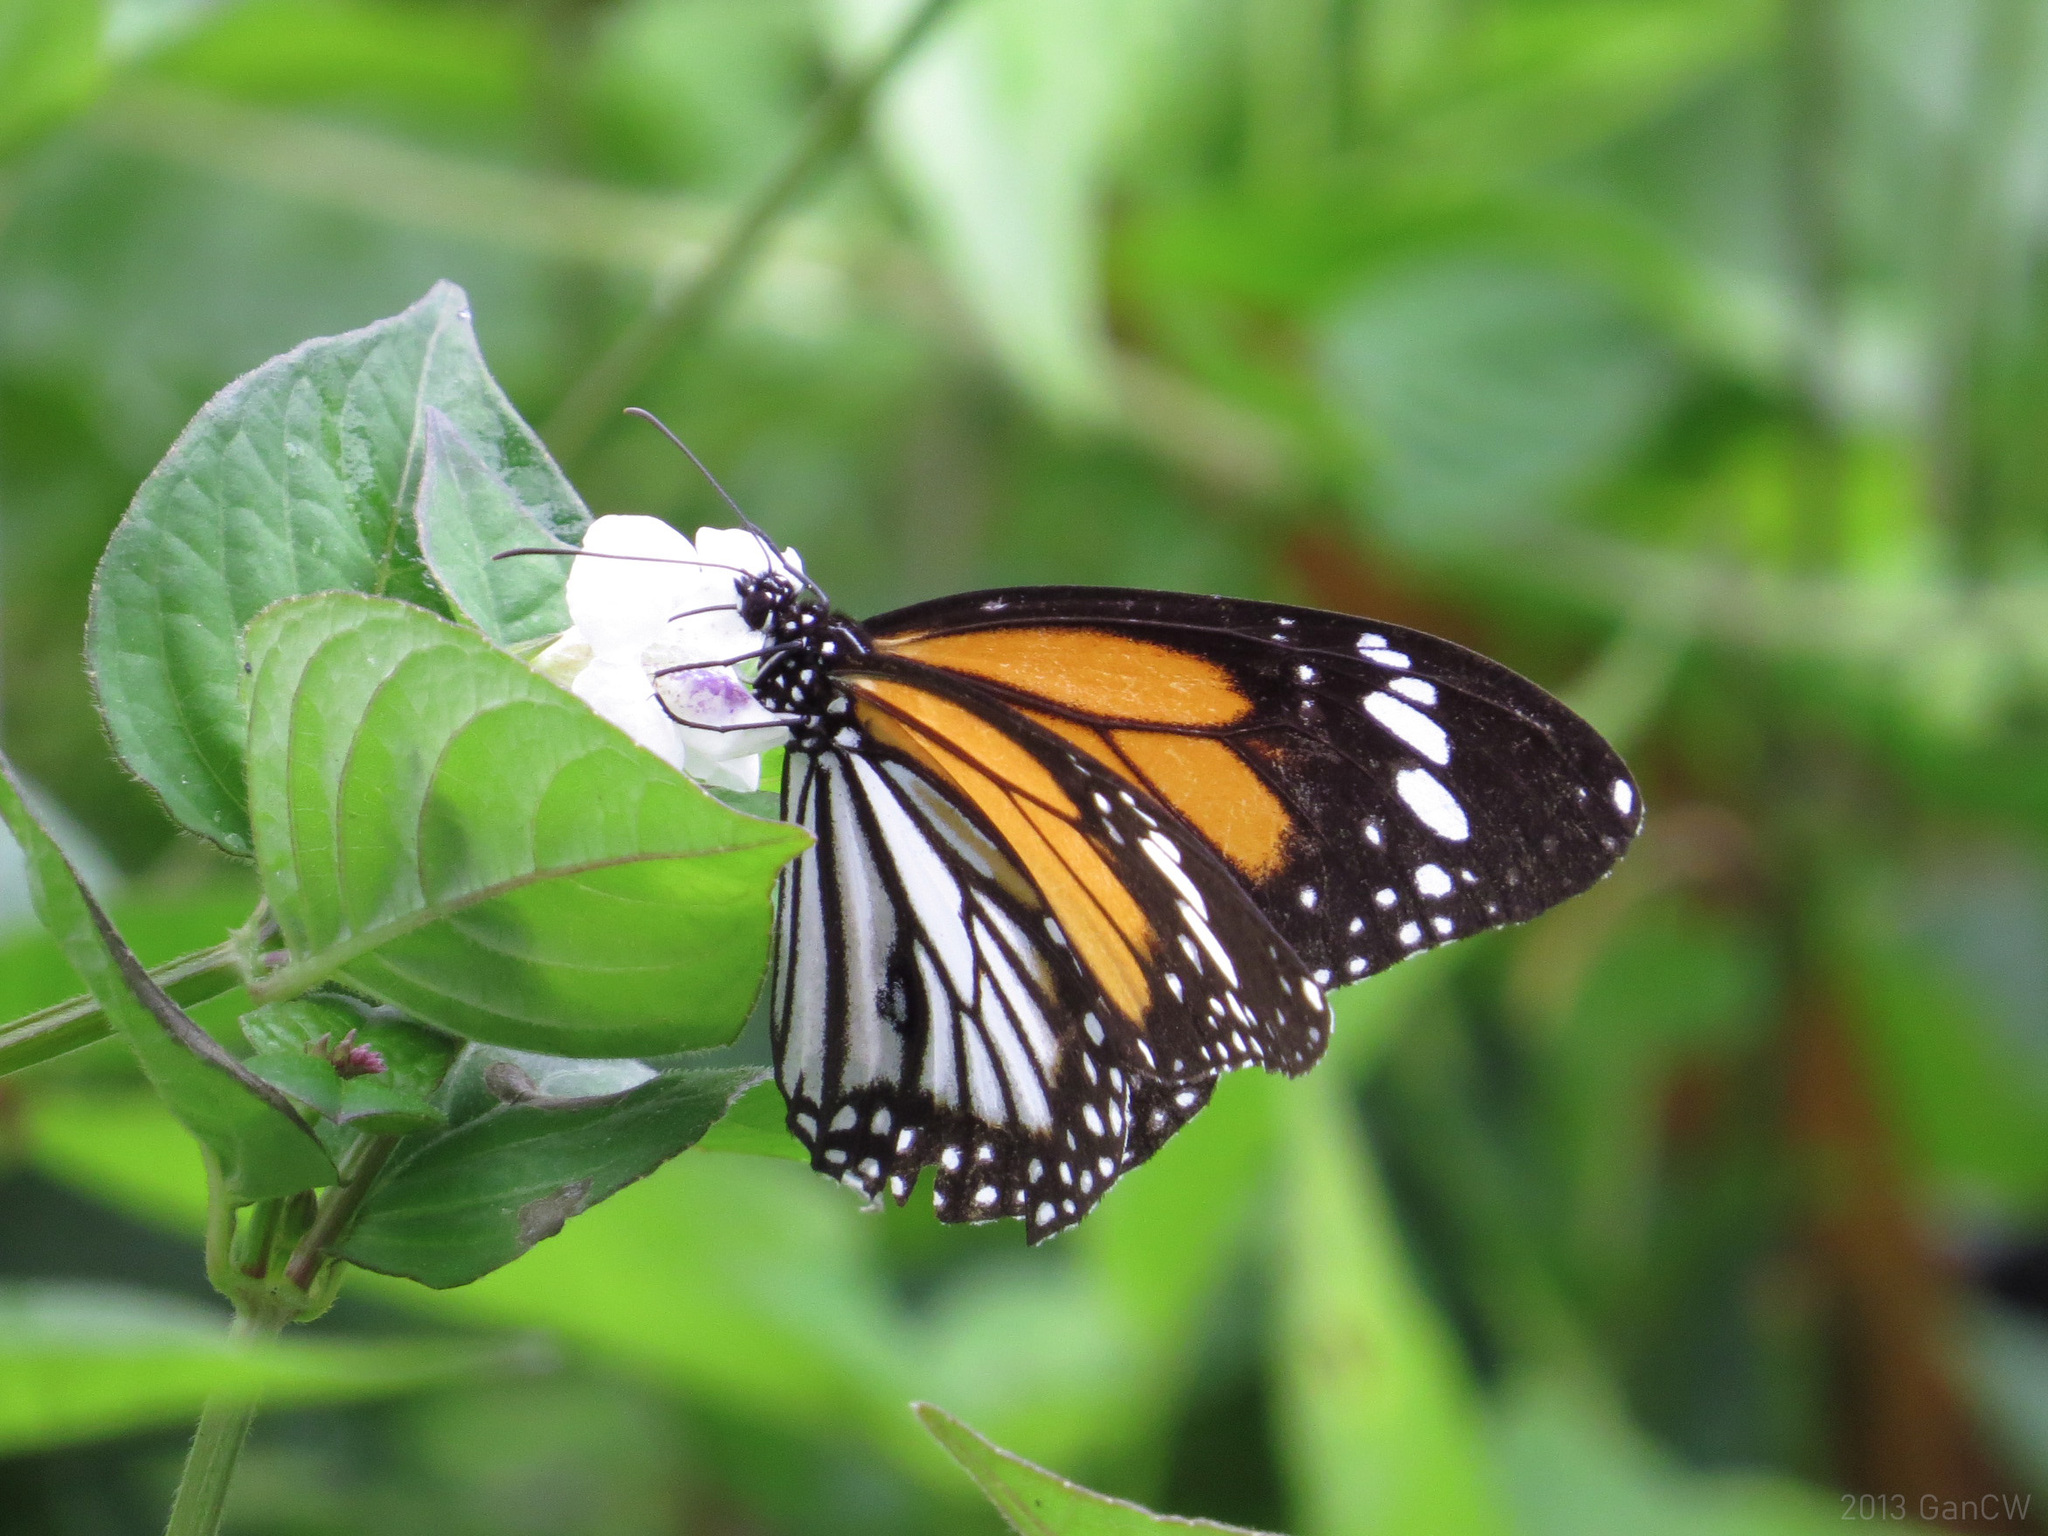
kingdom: Animalia
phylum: Arthropoda
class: Insecta
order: Lepidoptera
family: Nymphalidae
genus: Danaus
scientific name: Danaus melanippus
